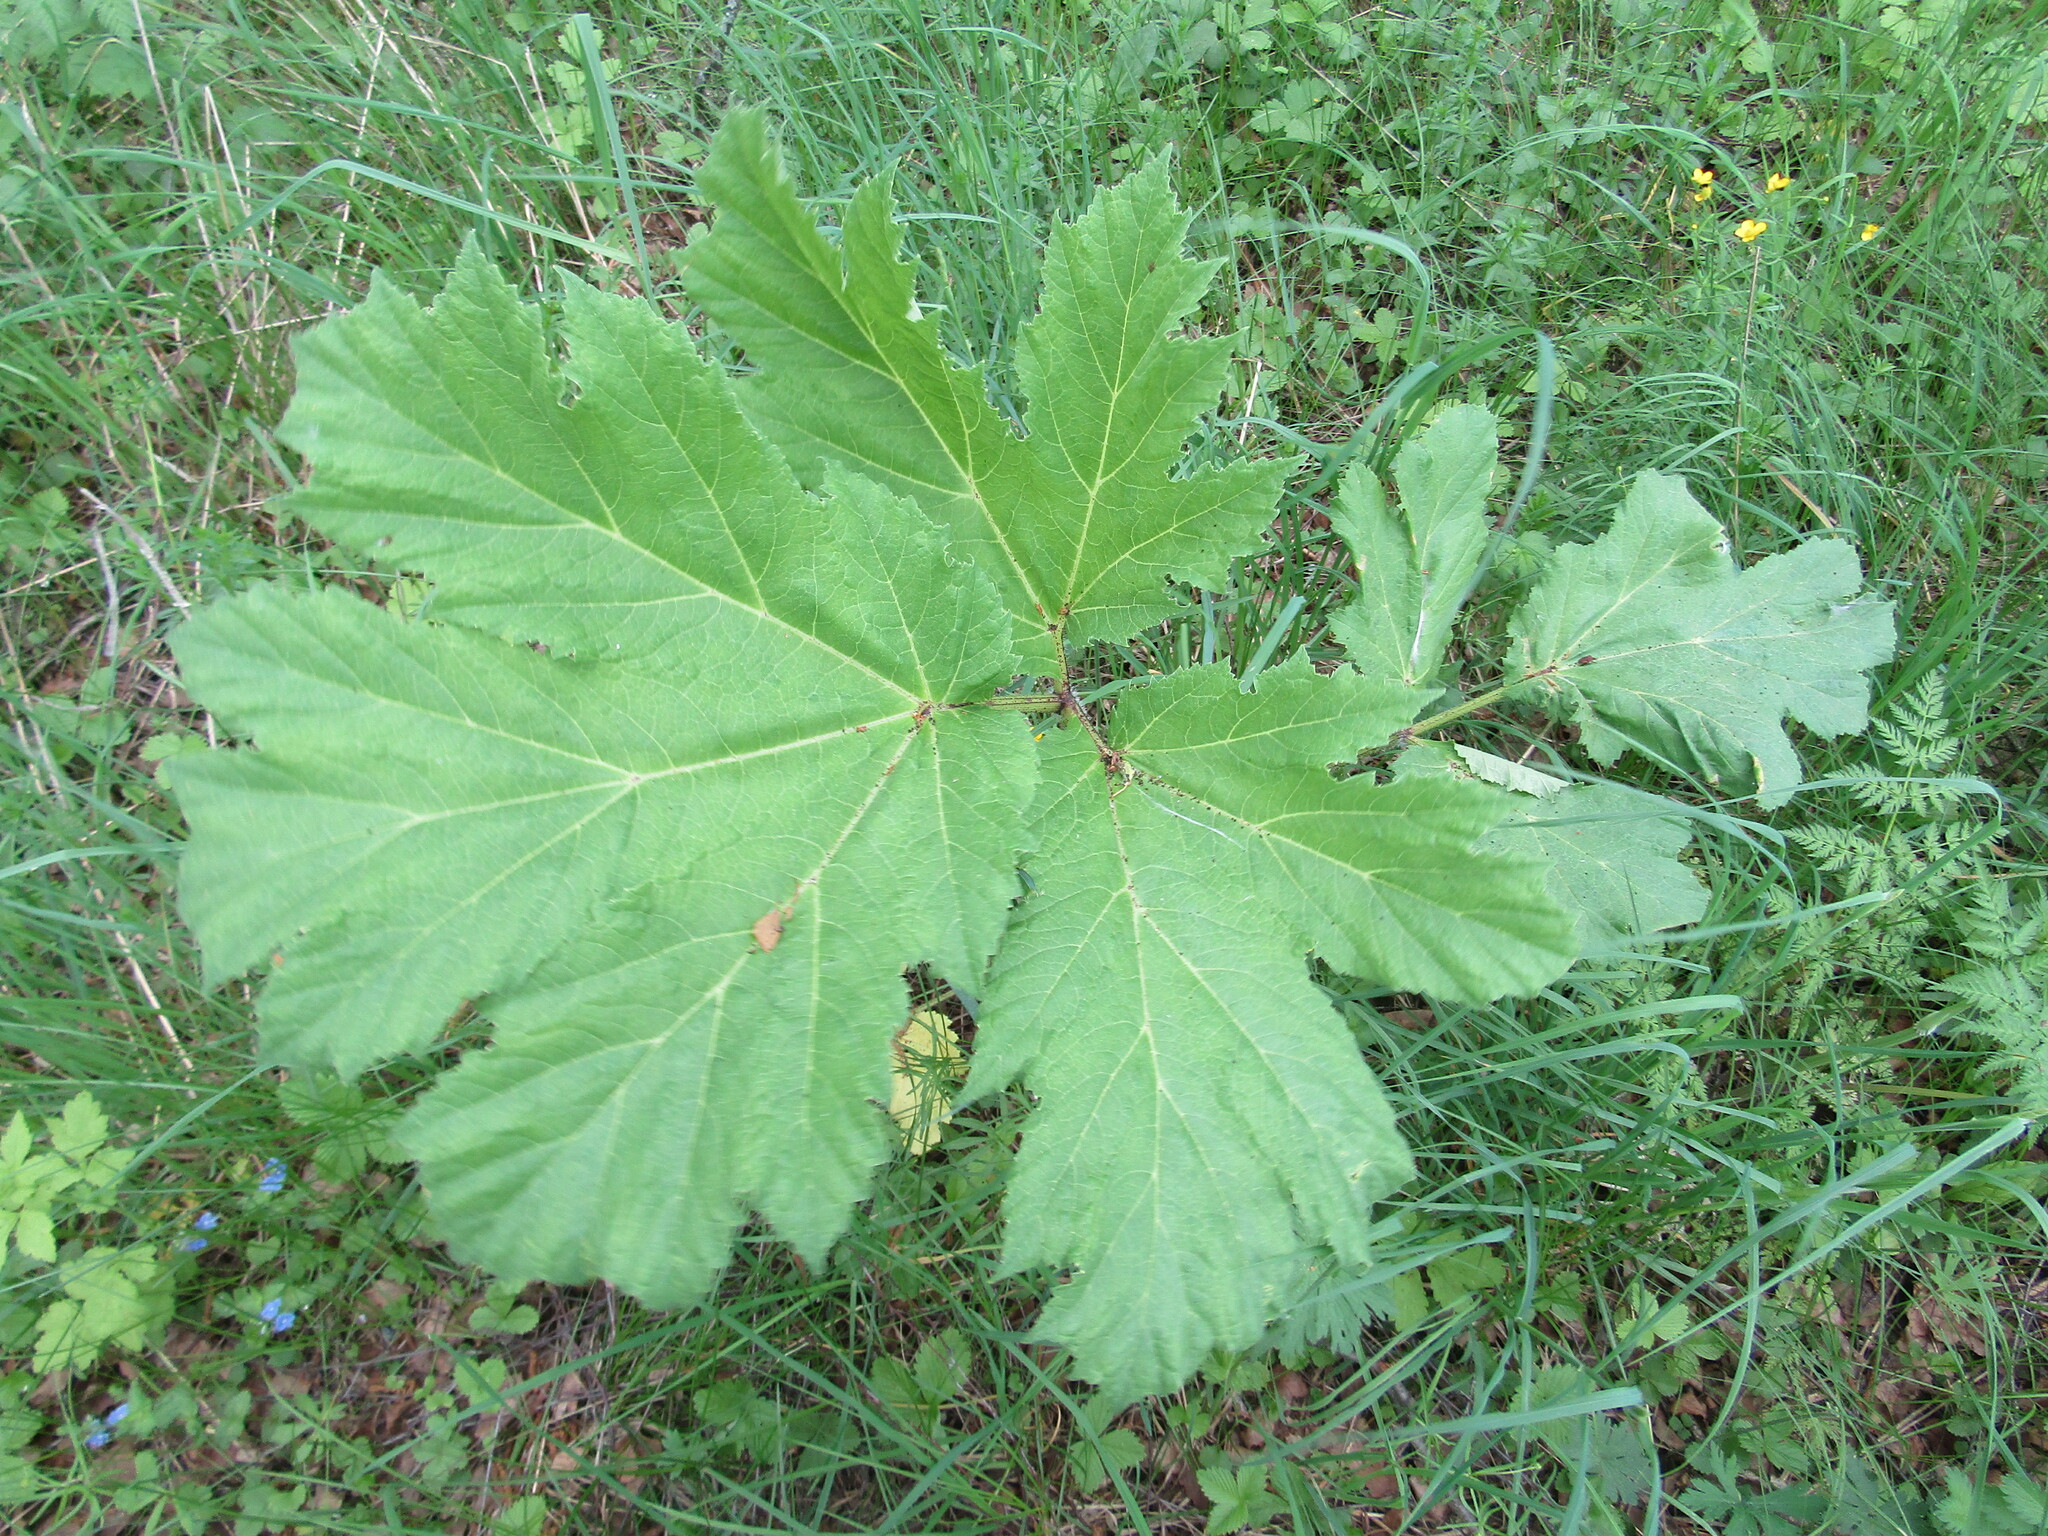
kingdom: Plantae
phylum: Tracheophyta
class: Magnoliopsida
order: Apiales
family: Apiaceae
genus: Heracleum
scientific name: Heracleum sosnowskyi
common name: Sosnowsky's hogweed
